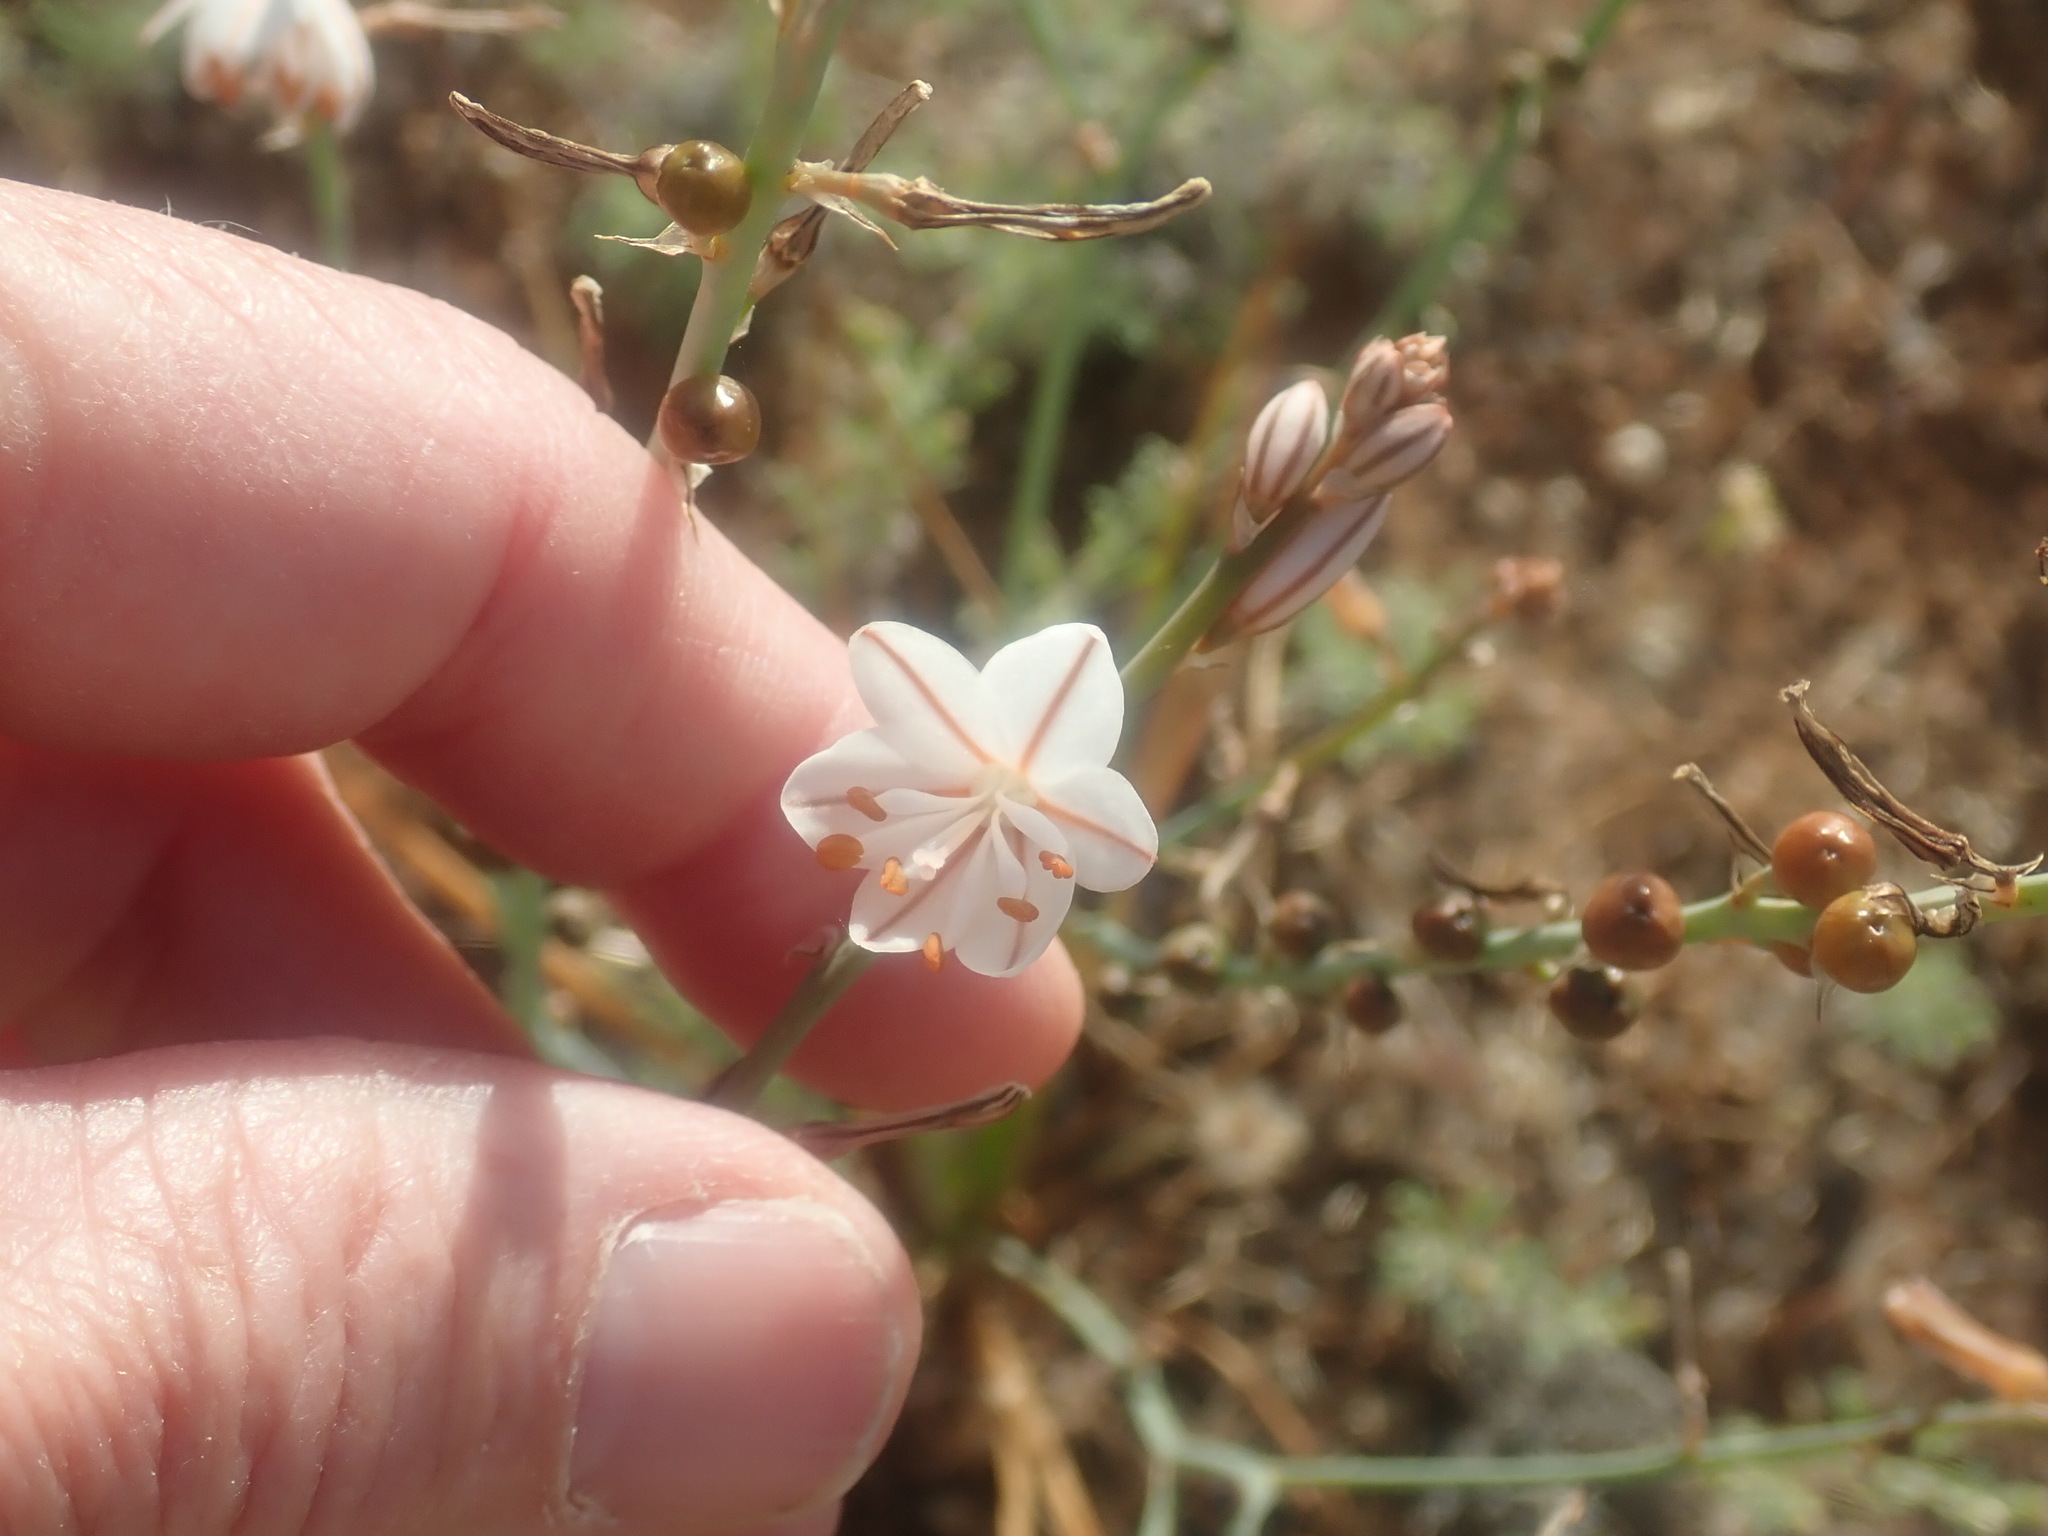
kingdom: Plantae
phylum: Tracheophyta
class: Liliopsida
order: Asparagales
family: Asphodelaceae
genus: Asphodelus
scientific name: Asphodelus fistulosus
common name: Onionweed
